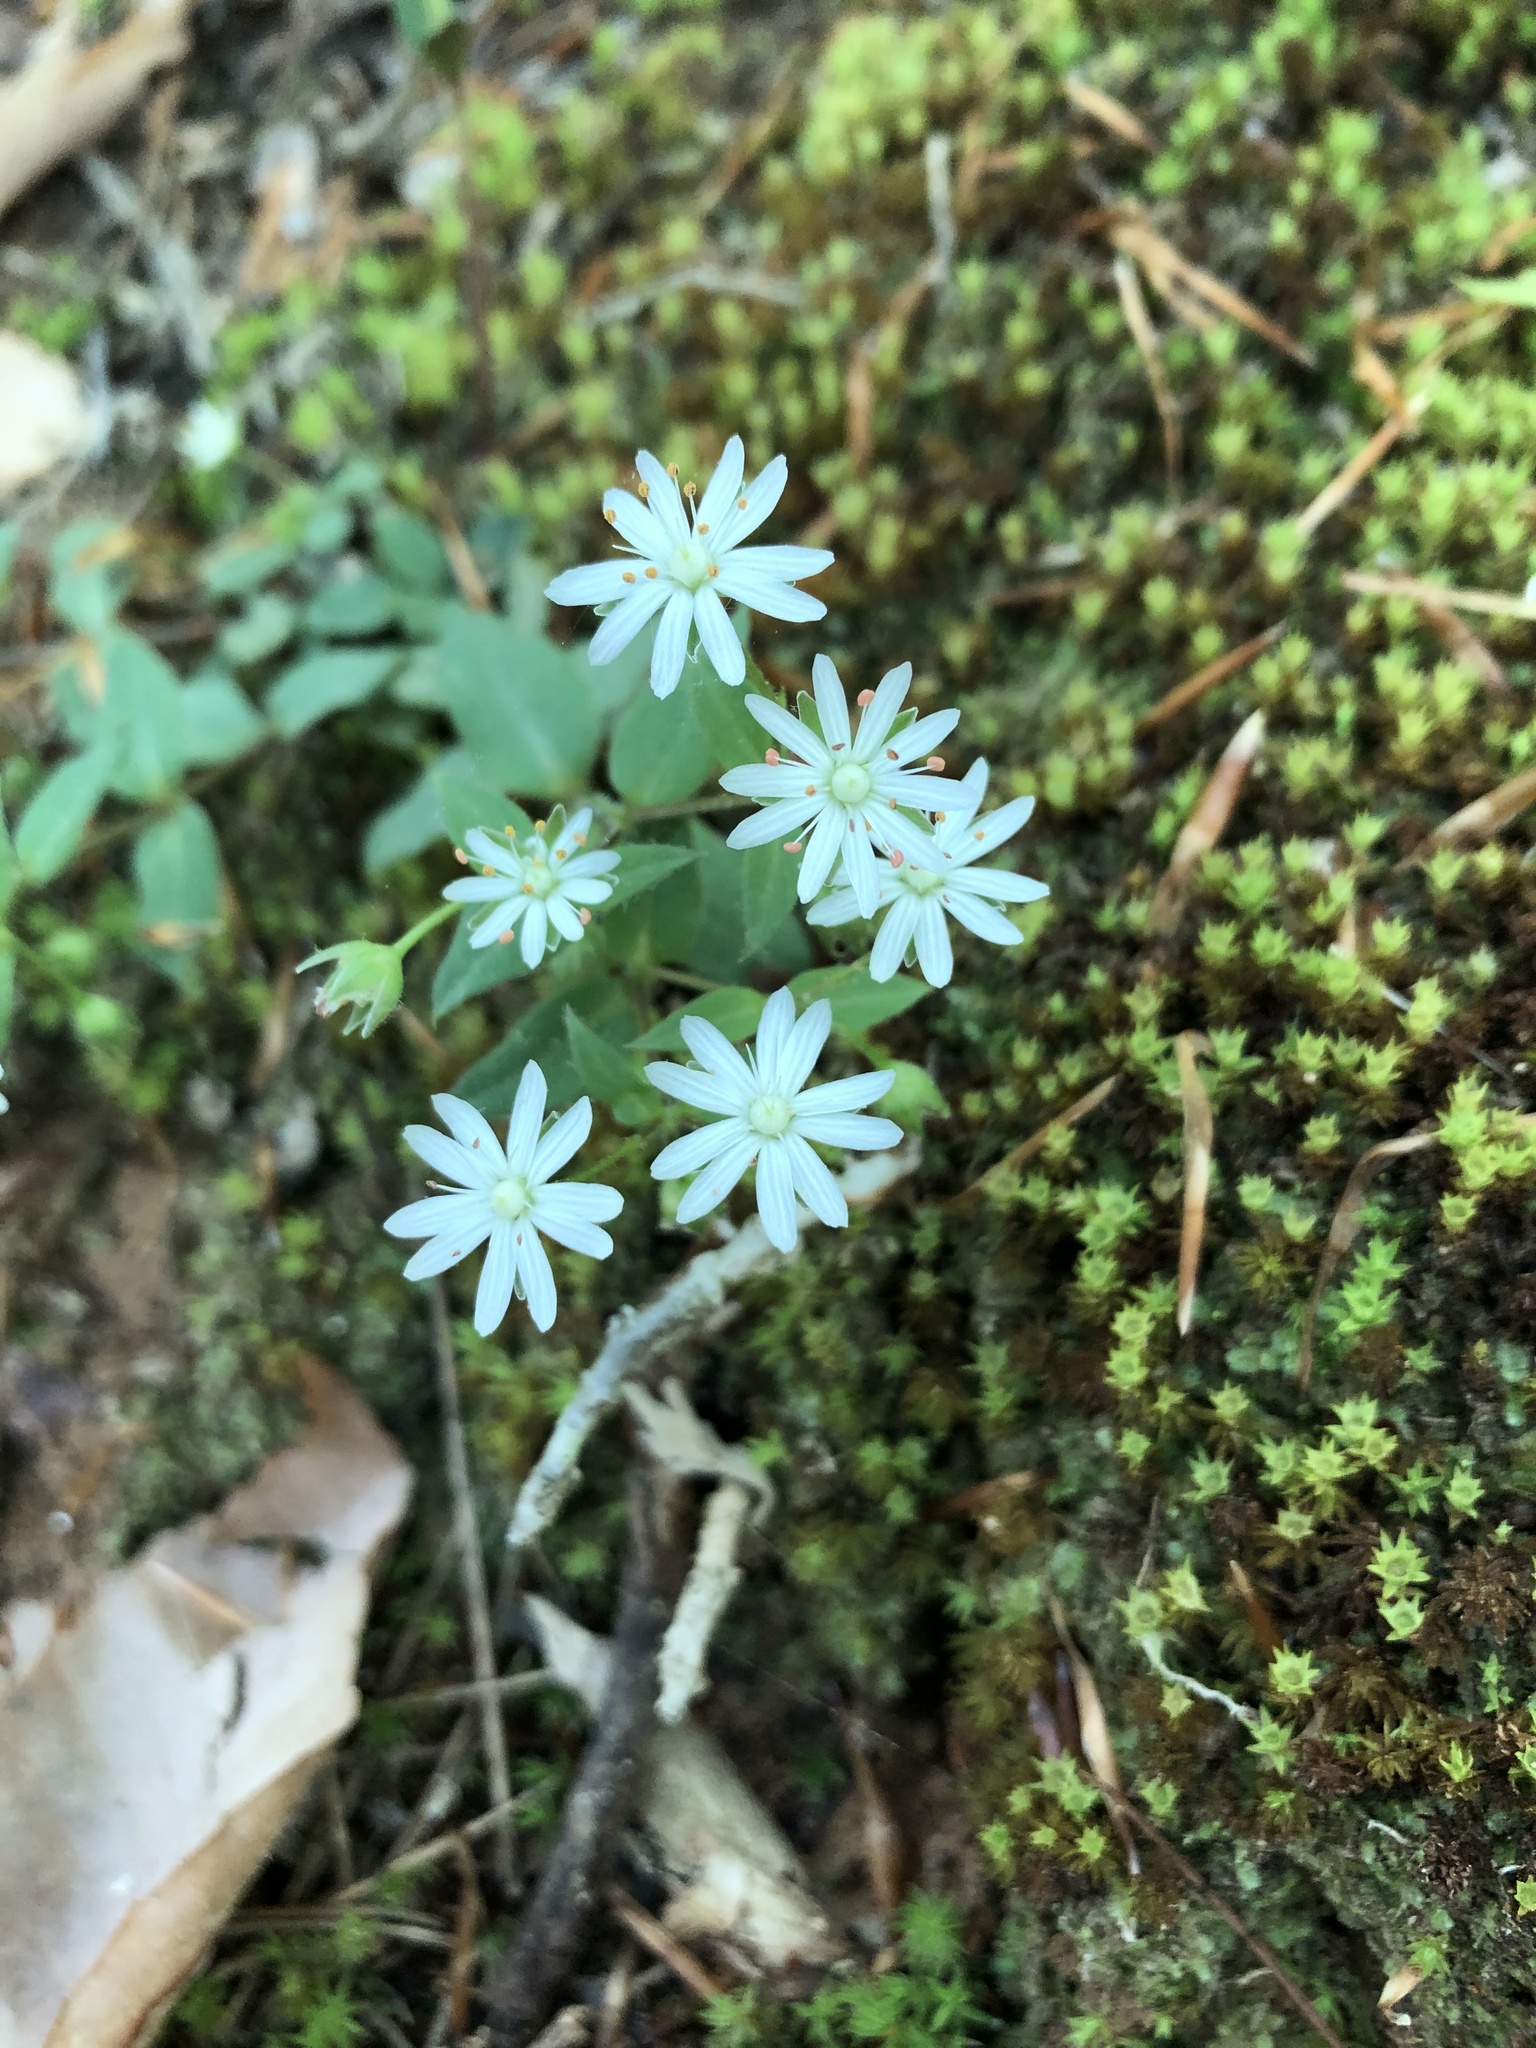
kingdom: Plantae
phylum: Tracheophyta
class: Magnoliopsida
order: Caryophyllales
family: Caryophyllaceae
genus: Stellaria
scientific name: Stellaria pubera
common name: Star chickweed
